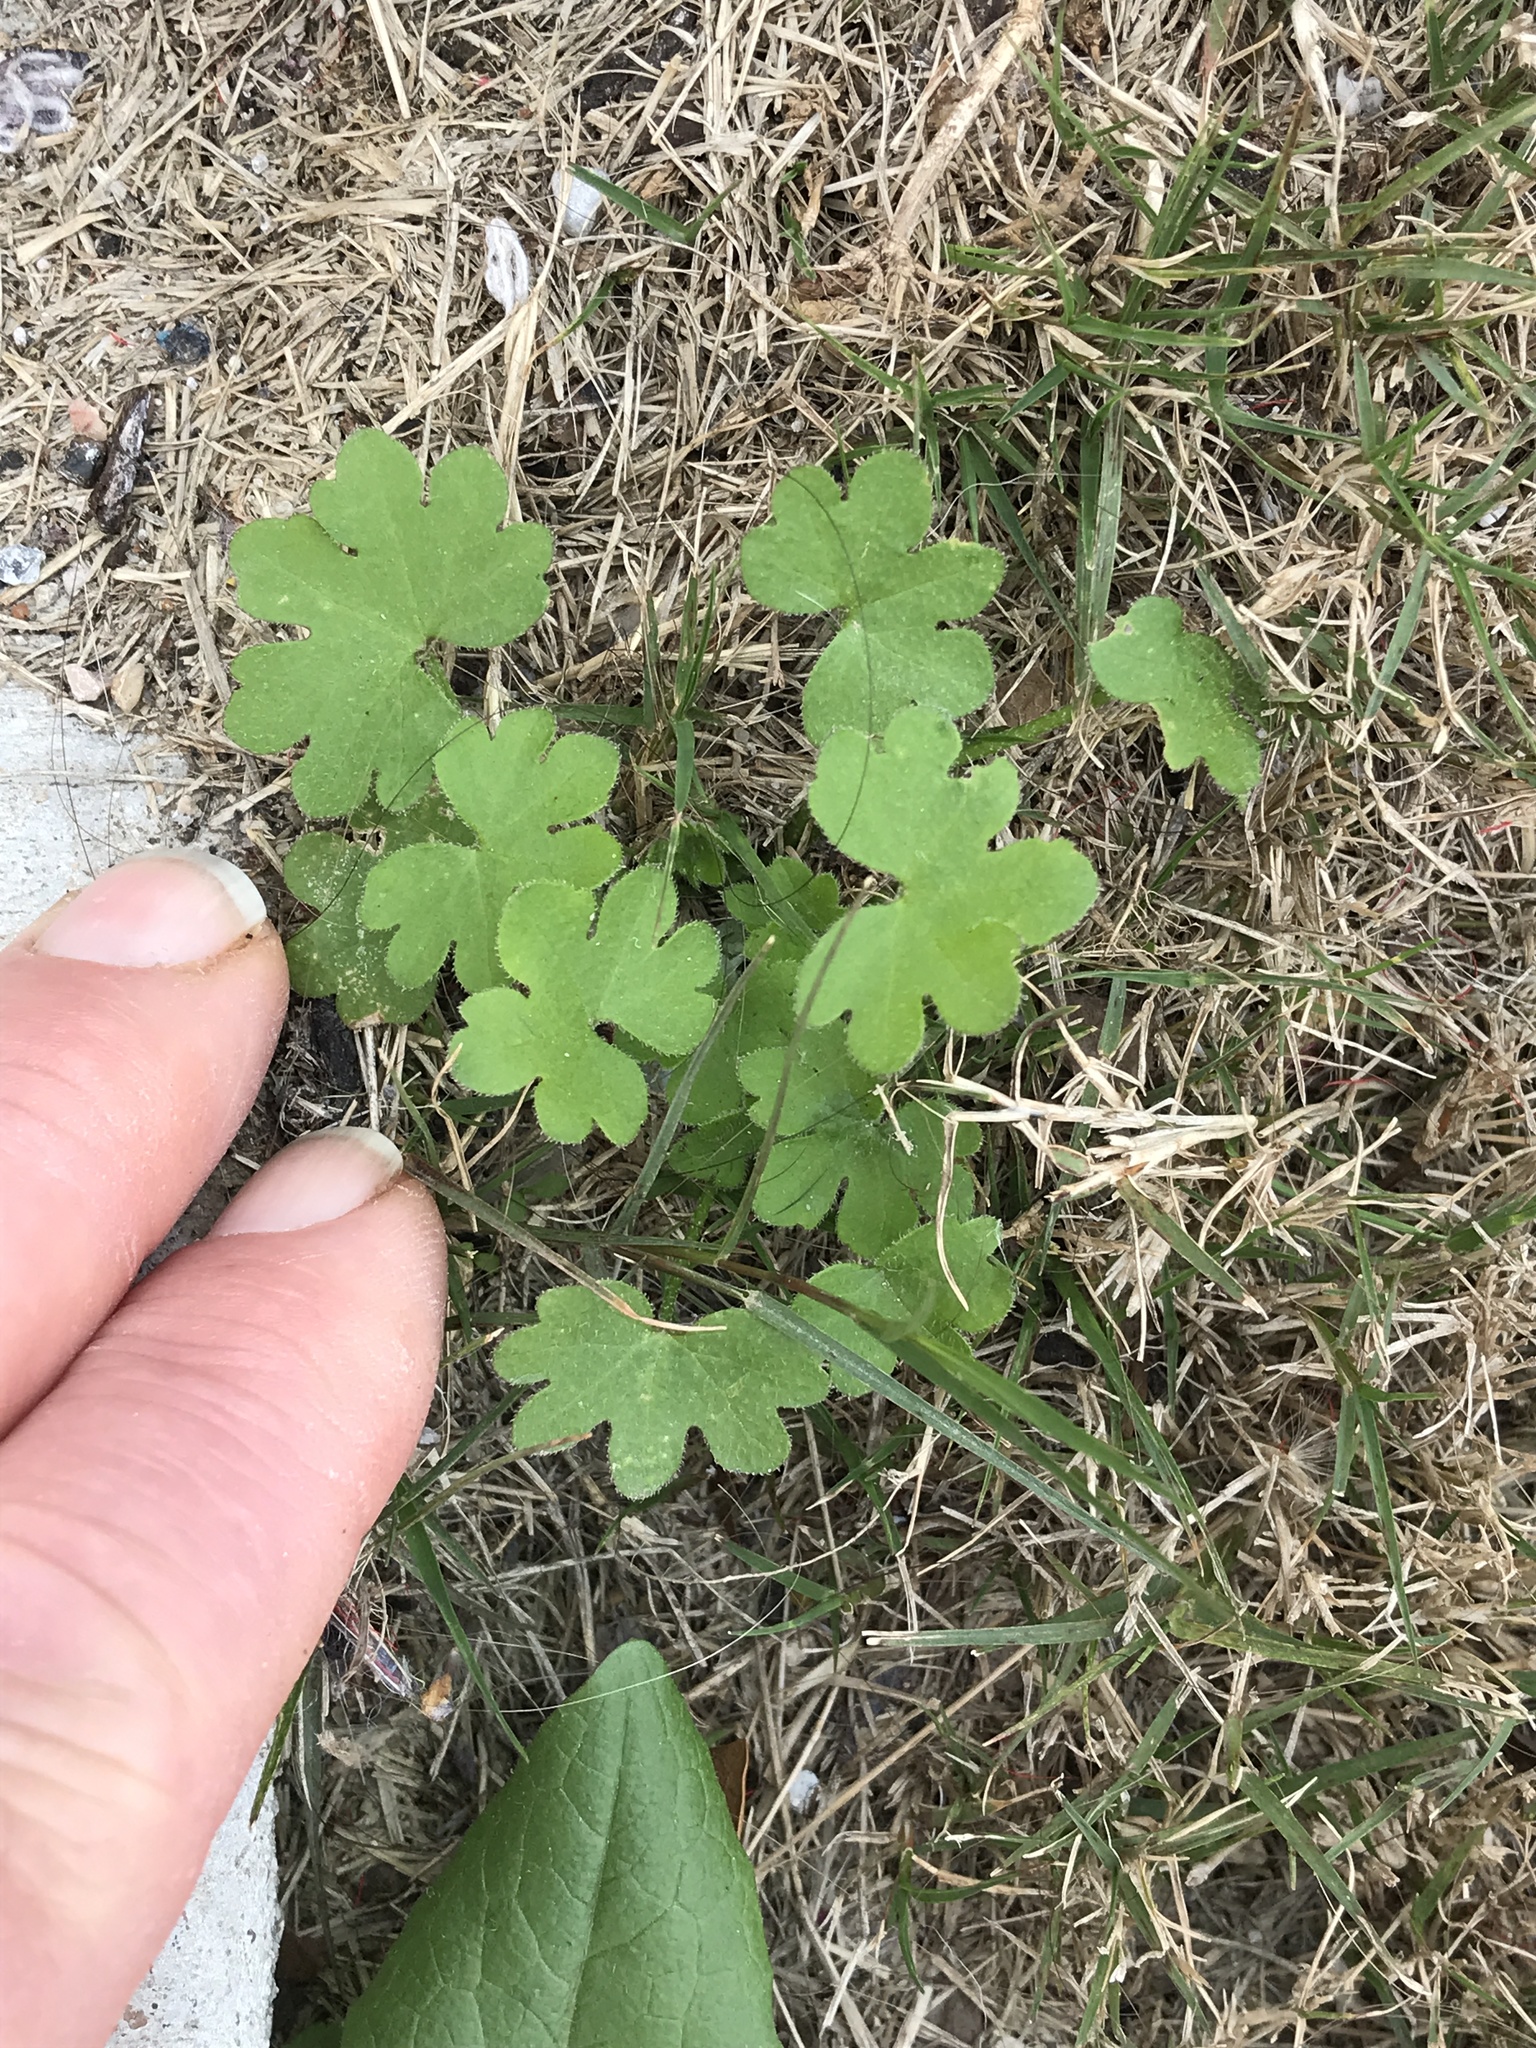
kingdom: Plantae
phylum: Tracheophyta
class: Magnoliopsida
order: Apiales
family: Apiaceae
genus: Bowlesia
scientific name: Bowlesia incana
